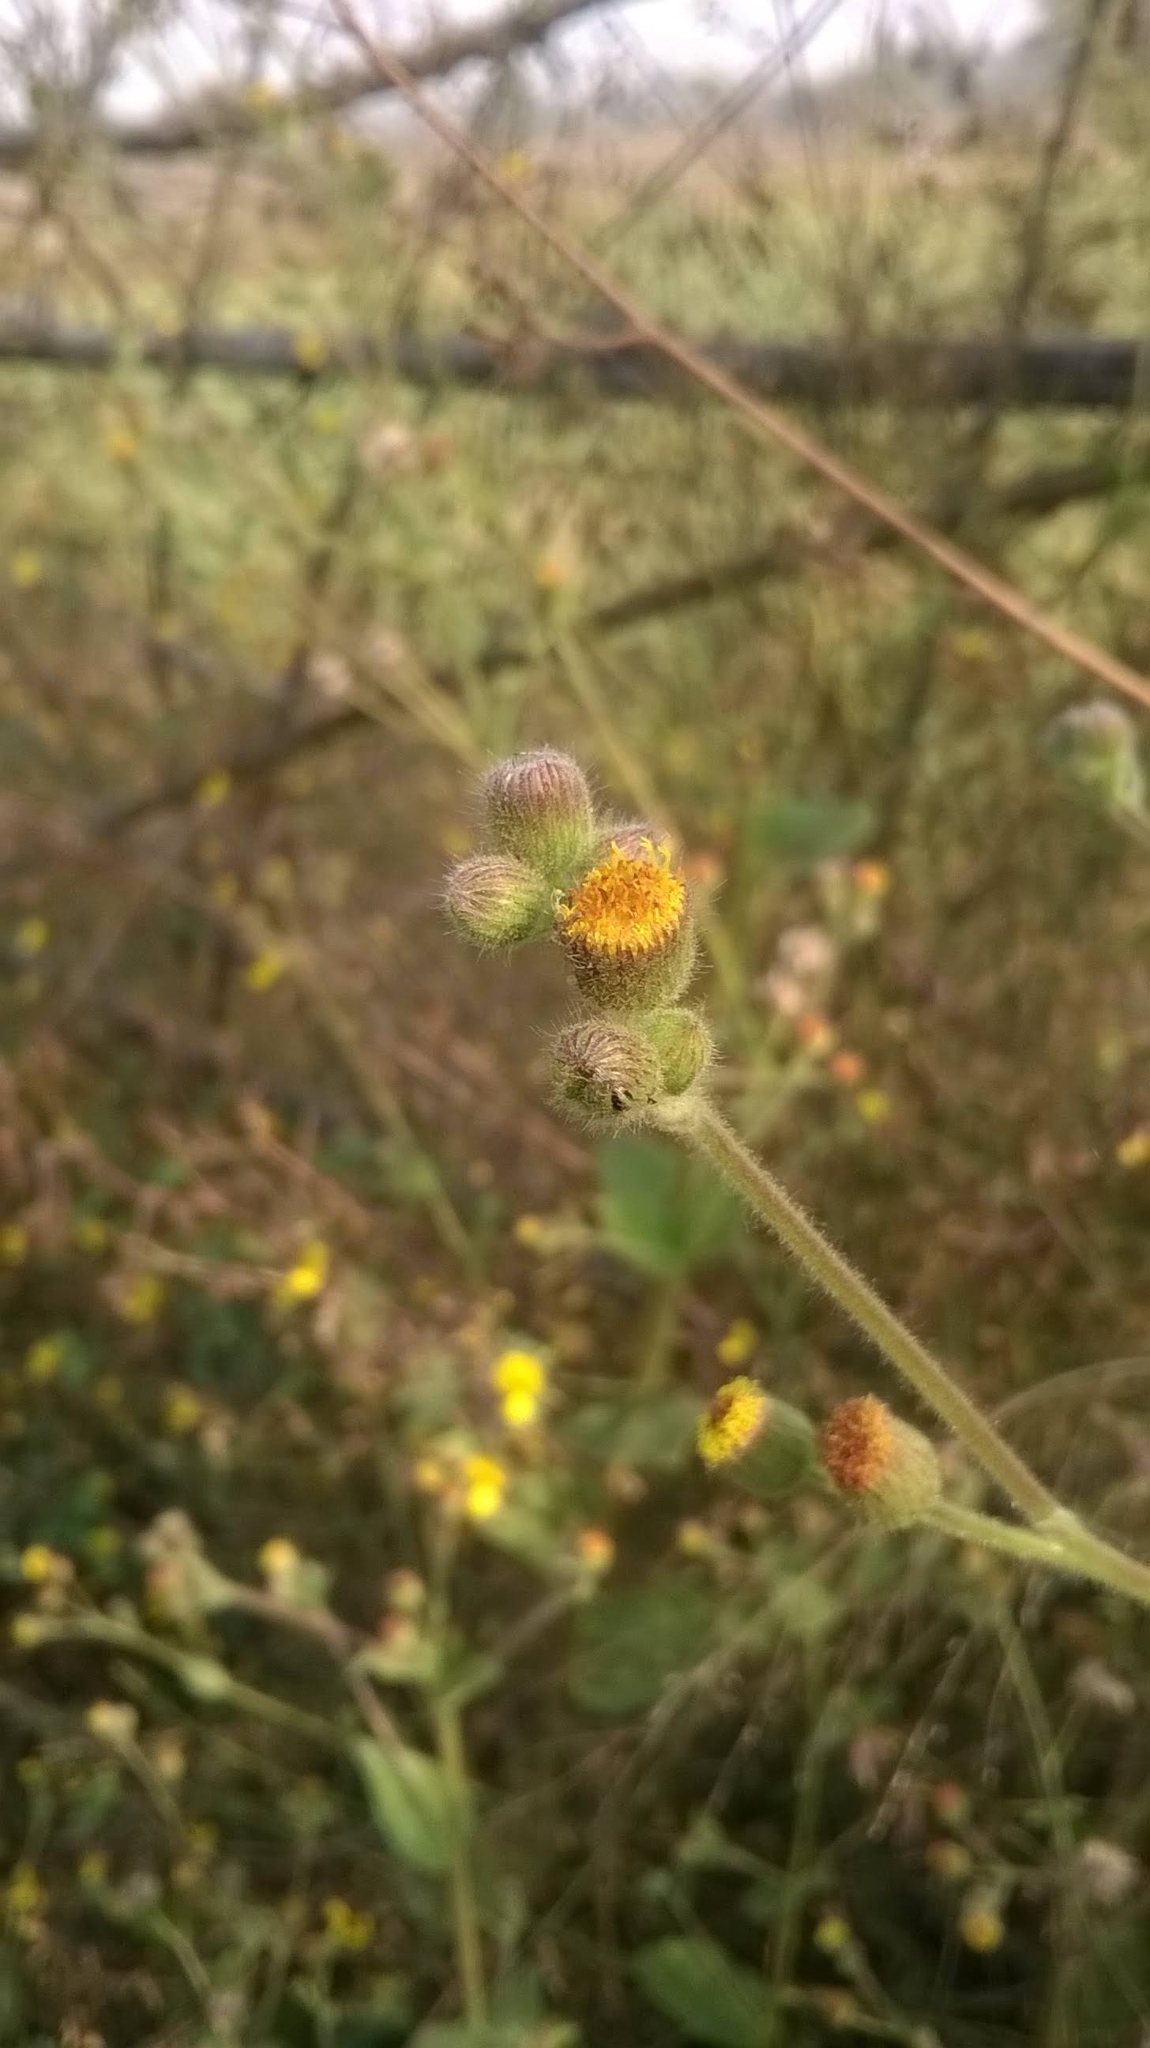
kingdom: Plantae
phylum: Tracheophyta
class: Magnoliopsida
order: Asterales
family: Asteraceae
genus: Blumea
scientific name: Blumea eriantha
